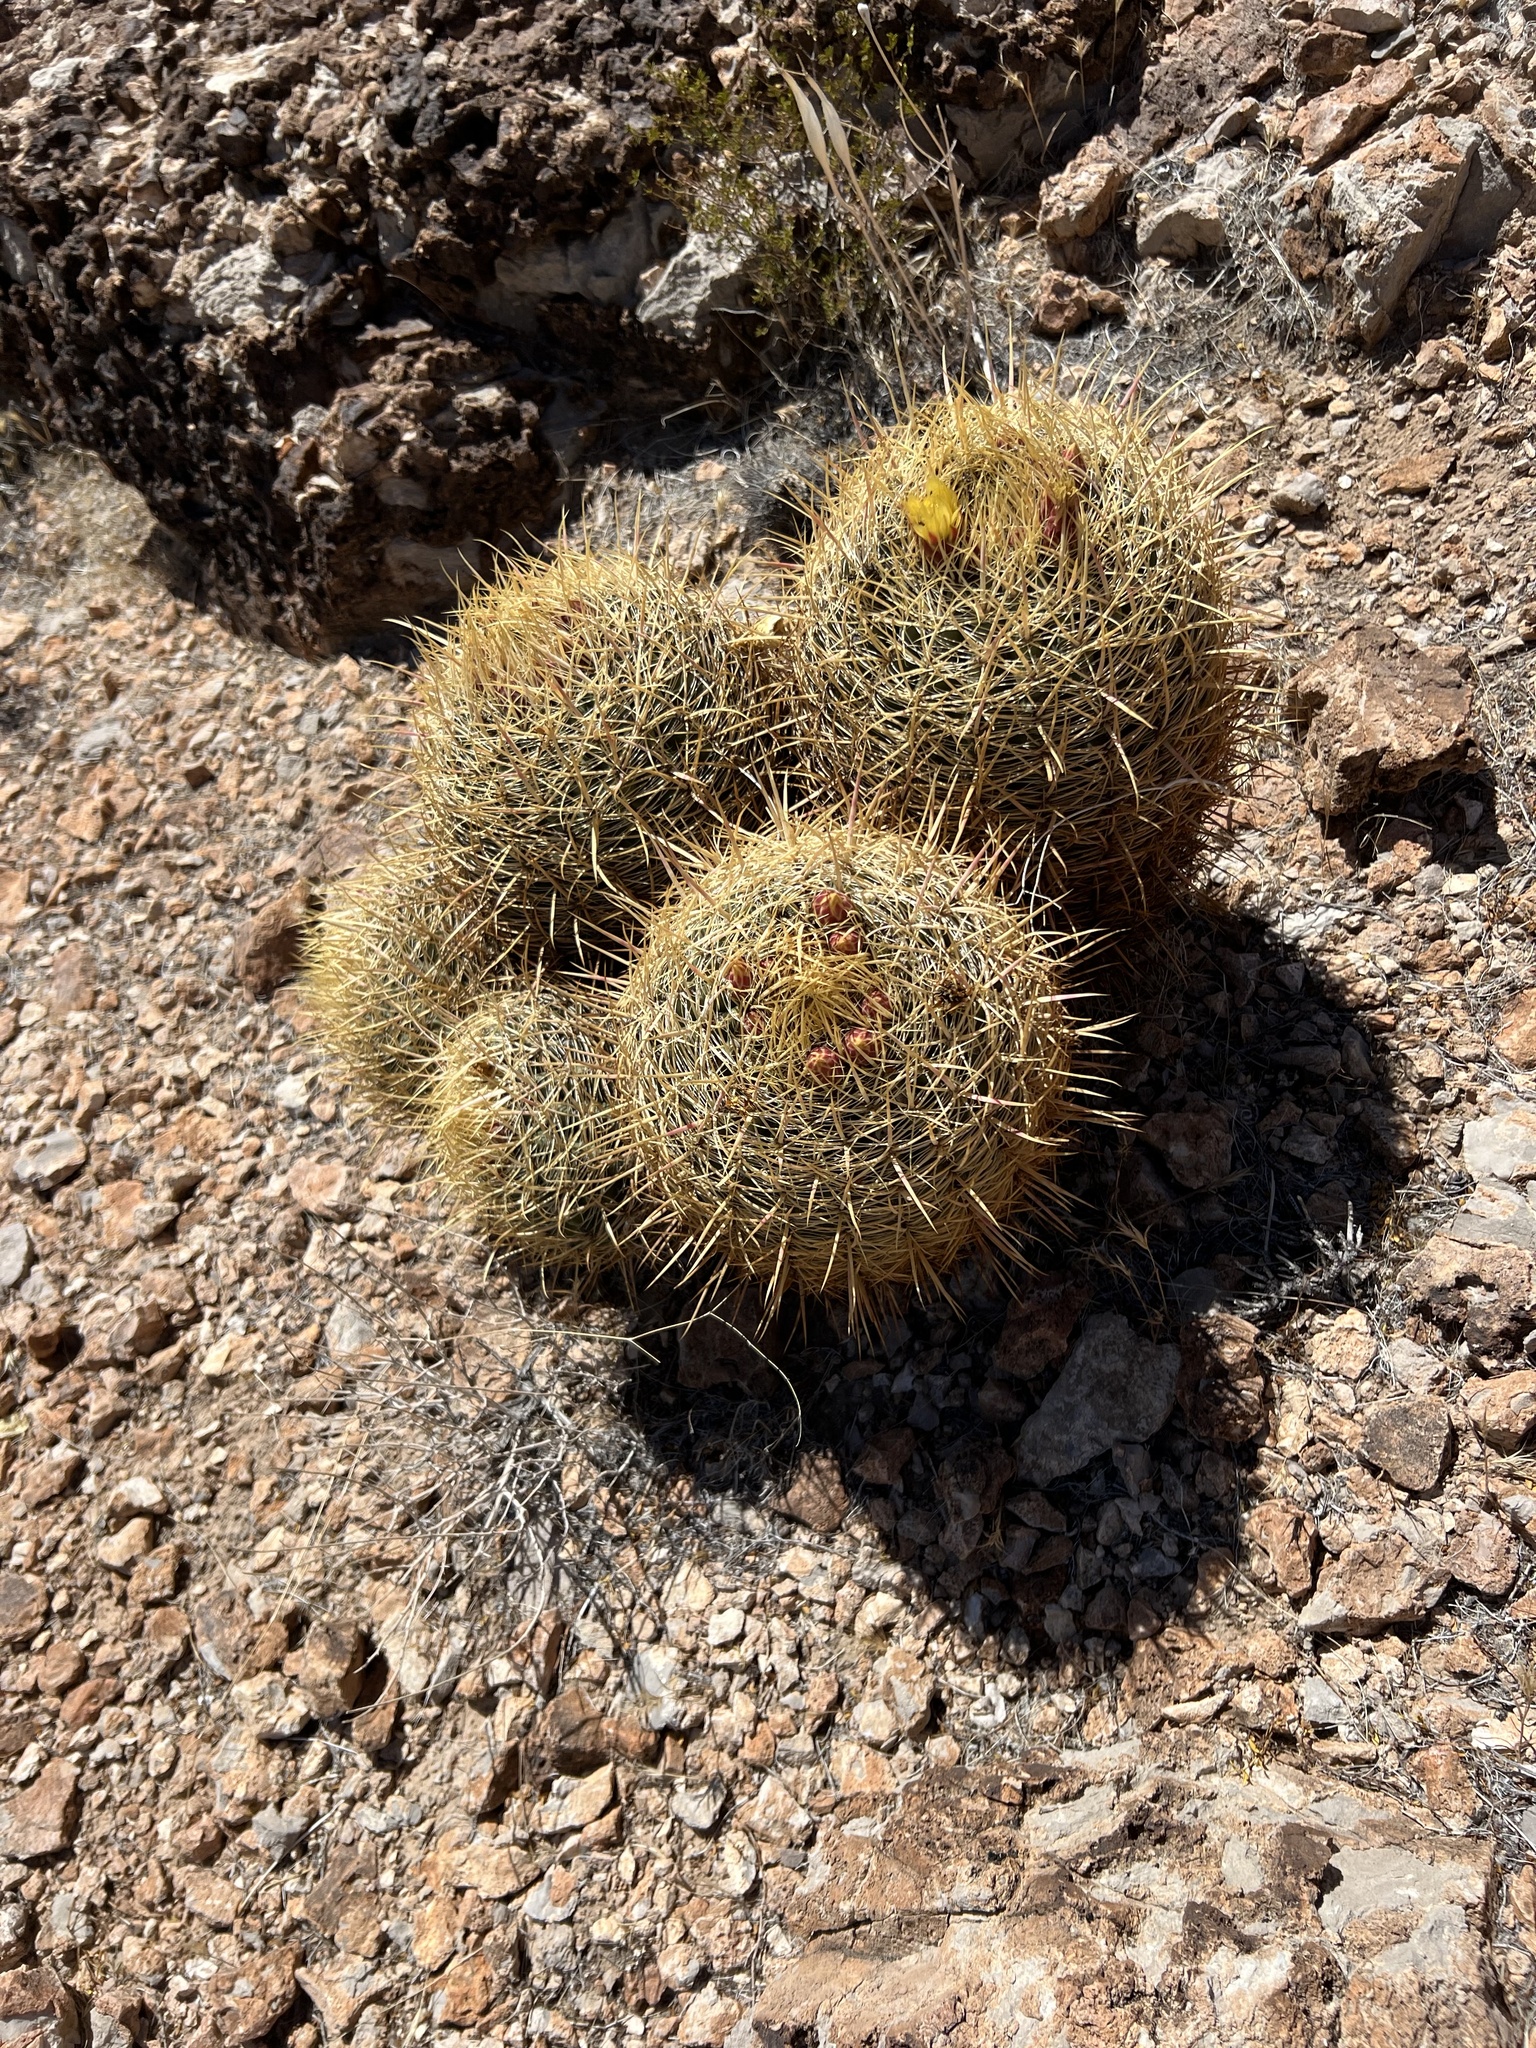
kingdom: Plantae
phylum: Tracheophyta
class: Magnoliopsida
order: Caryophyllales
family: Cactaceae
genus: Ferocactus
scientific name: Ferocactus cylindraceus
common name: California barrel cactus
